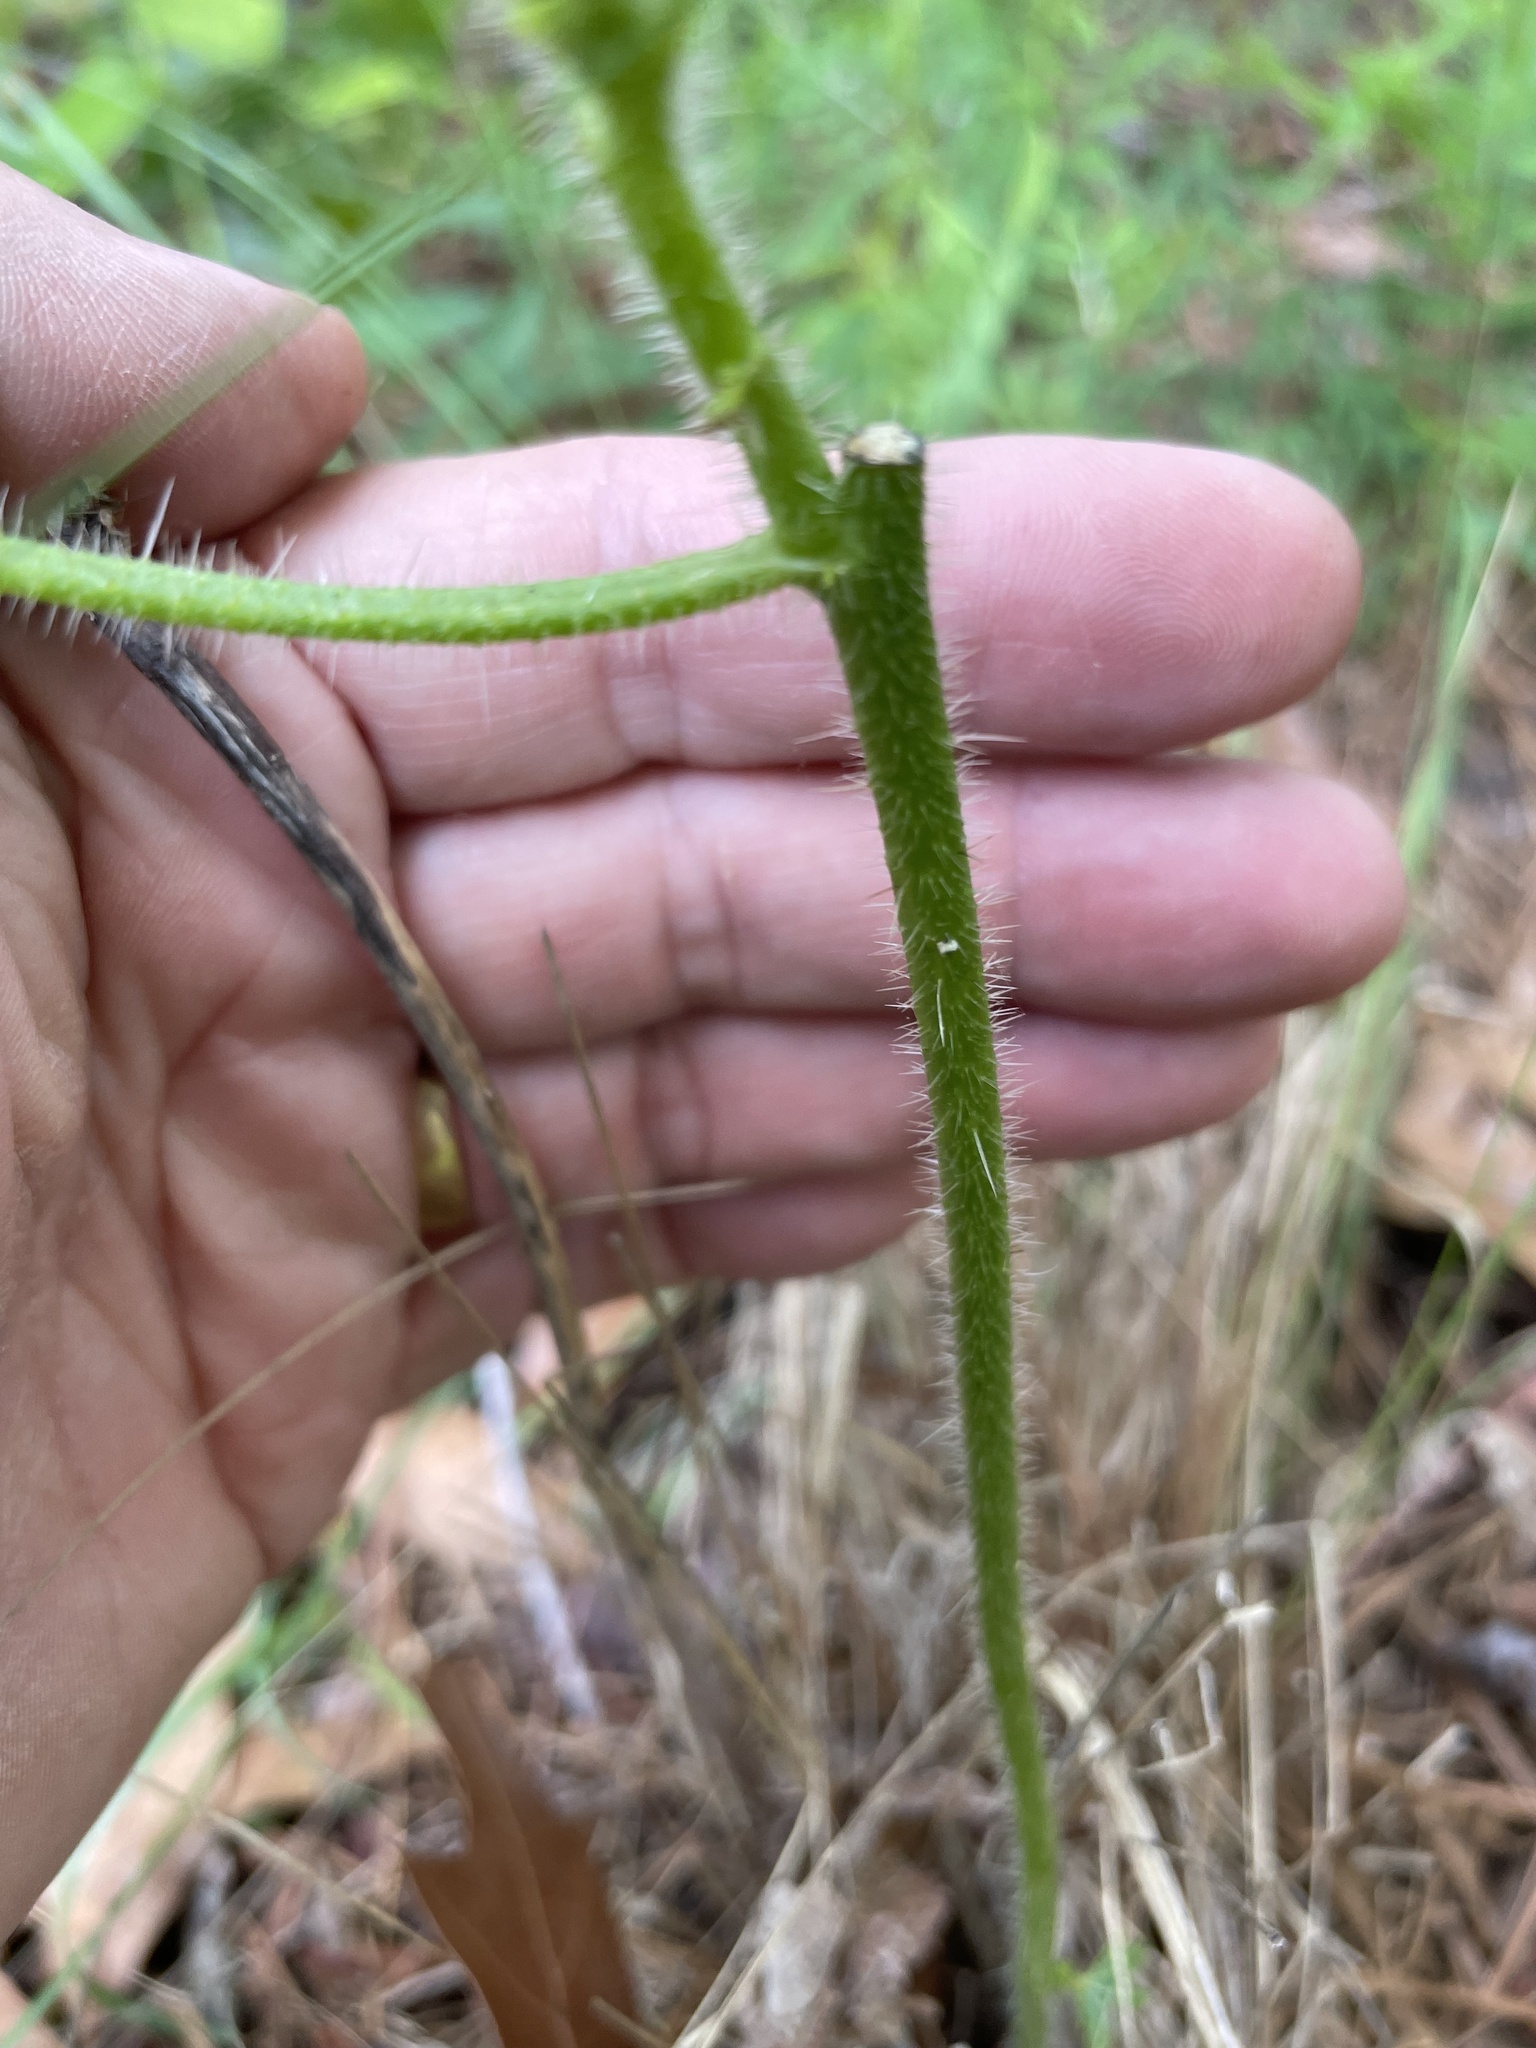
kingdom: Plantae
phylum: Tracheophyta
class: Magnoliopsida
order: Malpighiales
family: Euphorbiaceae
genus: Cnidoscolus
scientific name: Cnidoscolus stimulosus
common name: Bull-nettle
